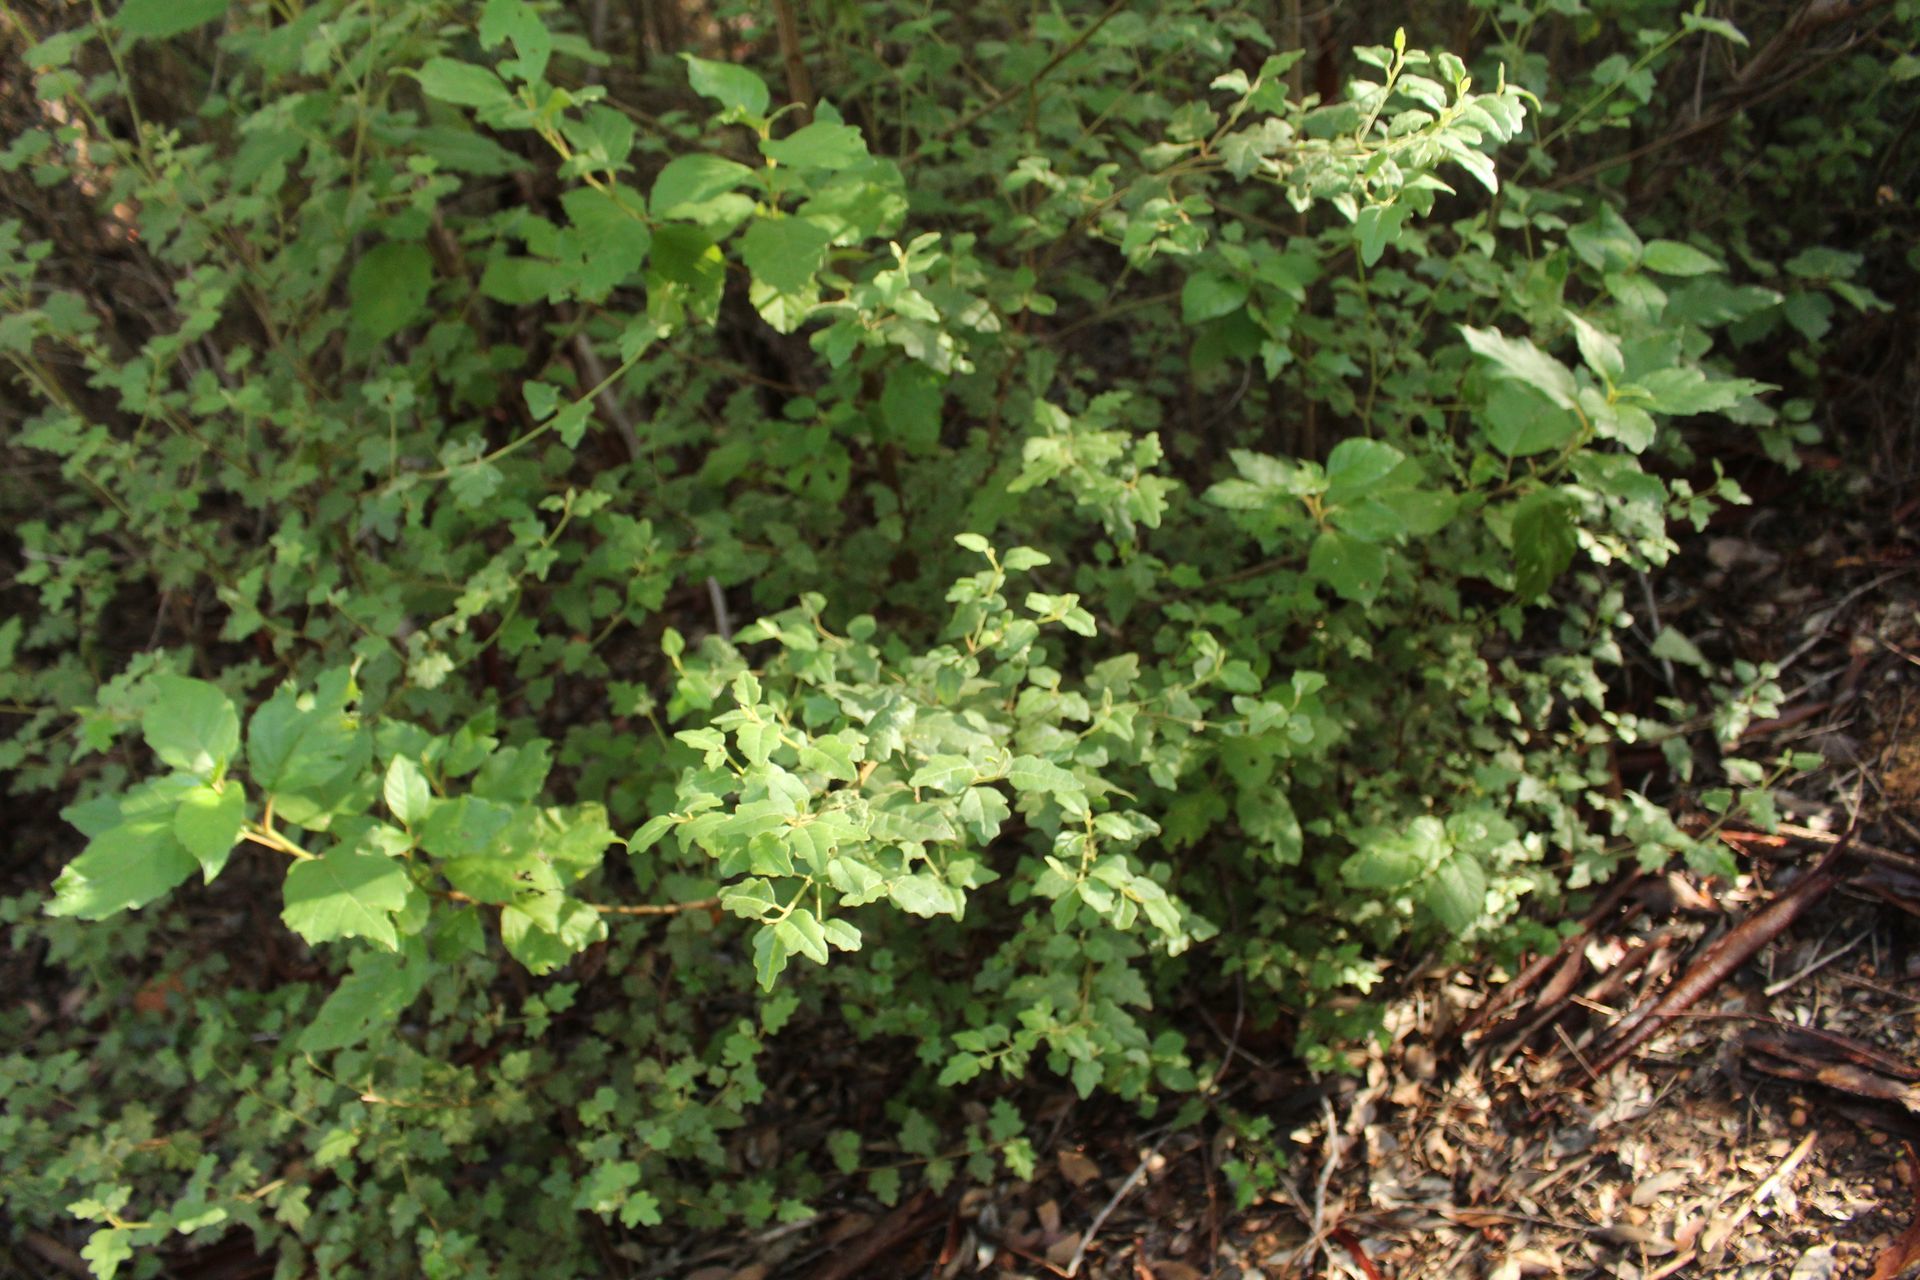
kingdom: Plantae
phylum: Tracheophyta
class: Magnoliopsida
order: Sapindales
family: Rutaceae
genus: Chorilaena
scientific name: Chorilaena quercifolia
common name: Wild hop
